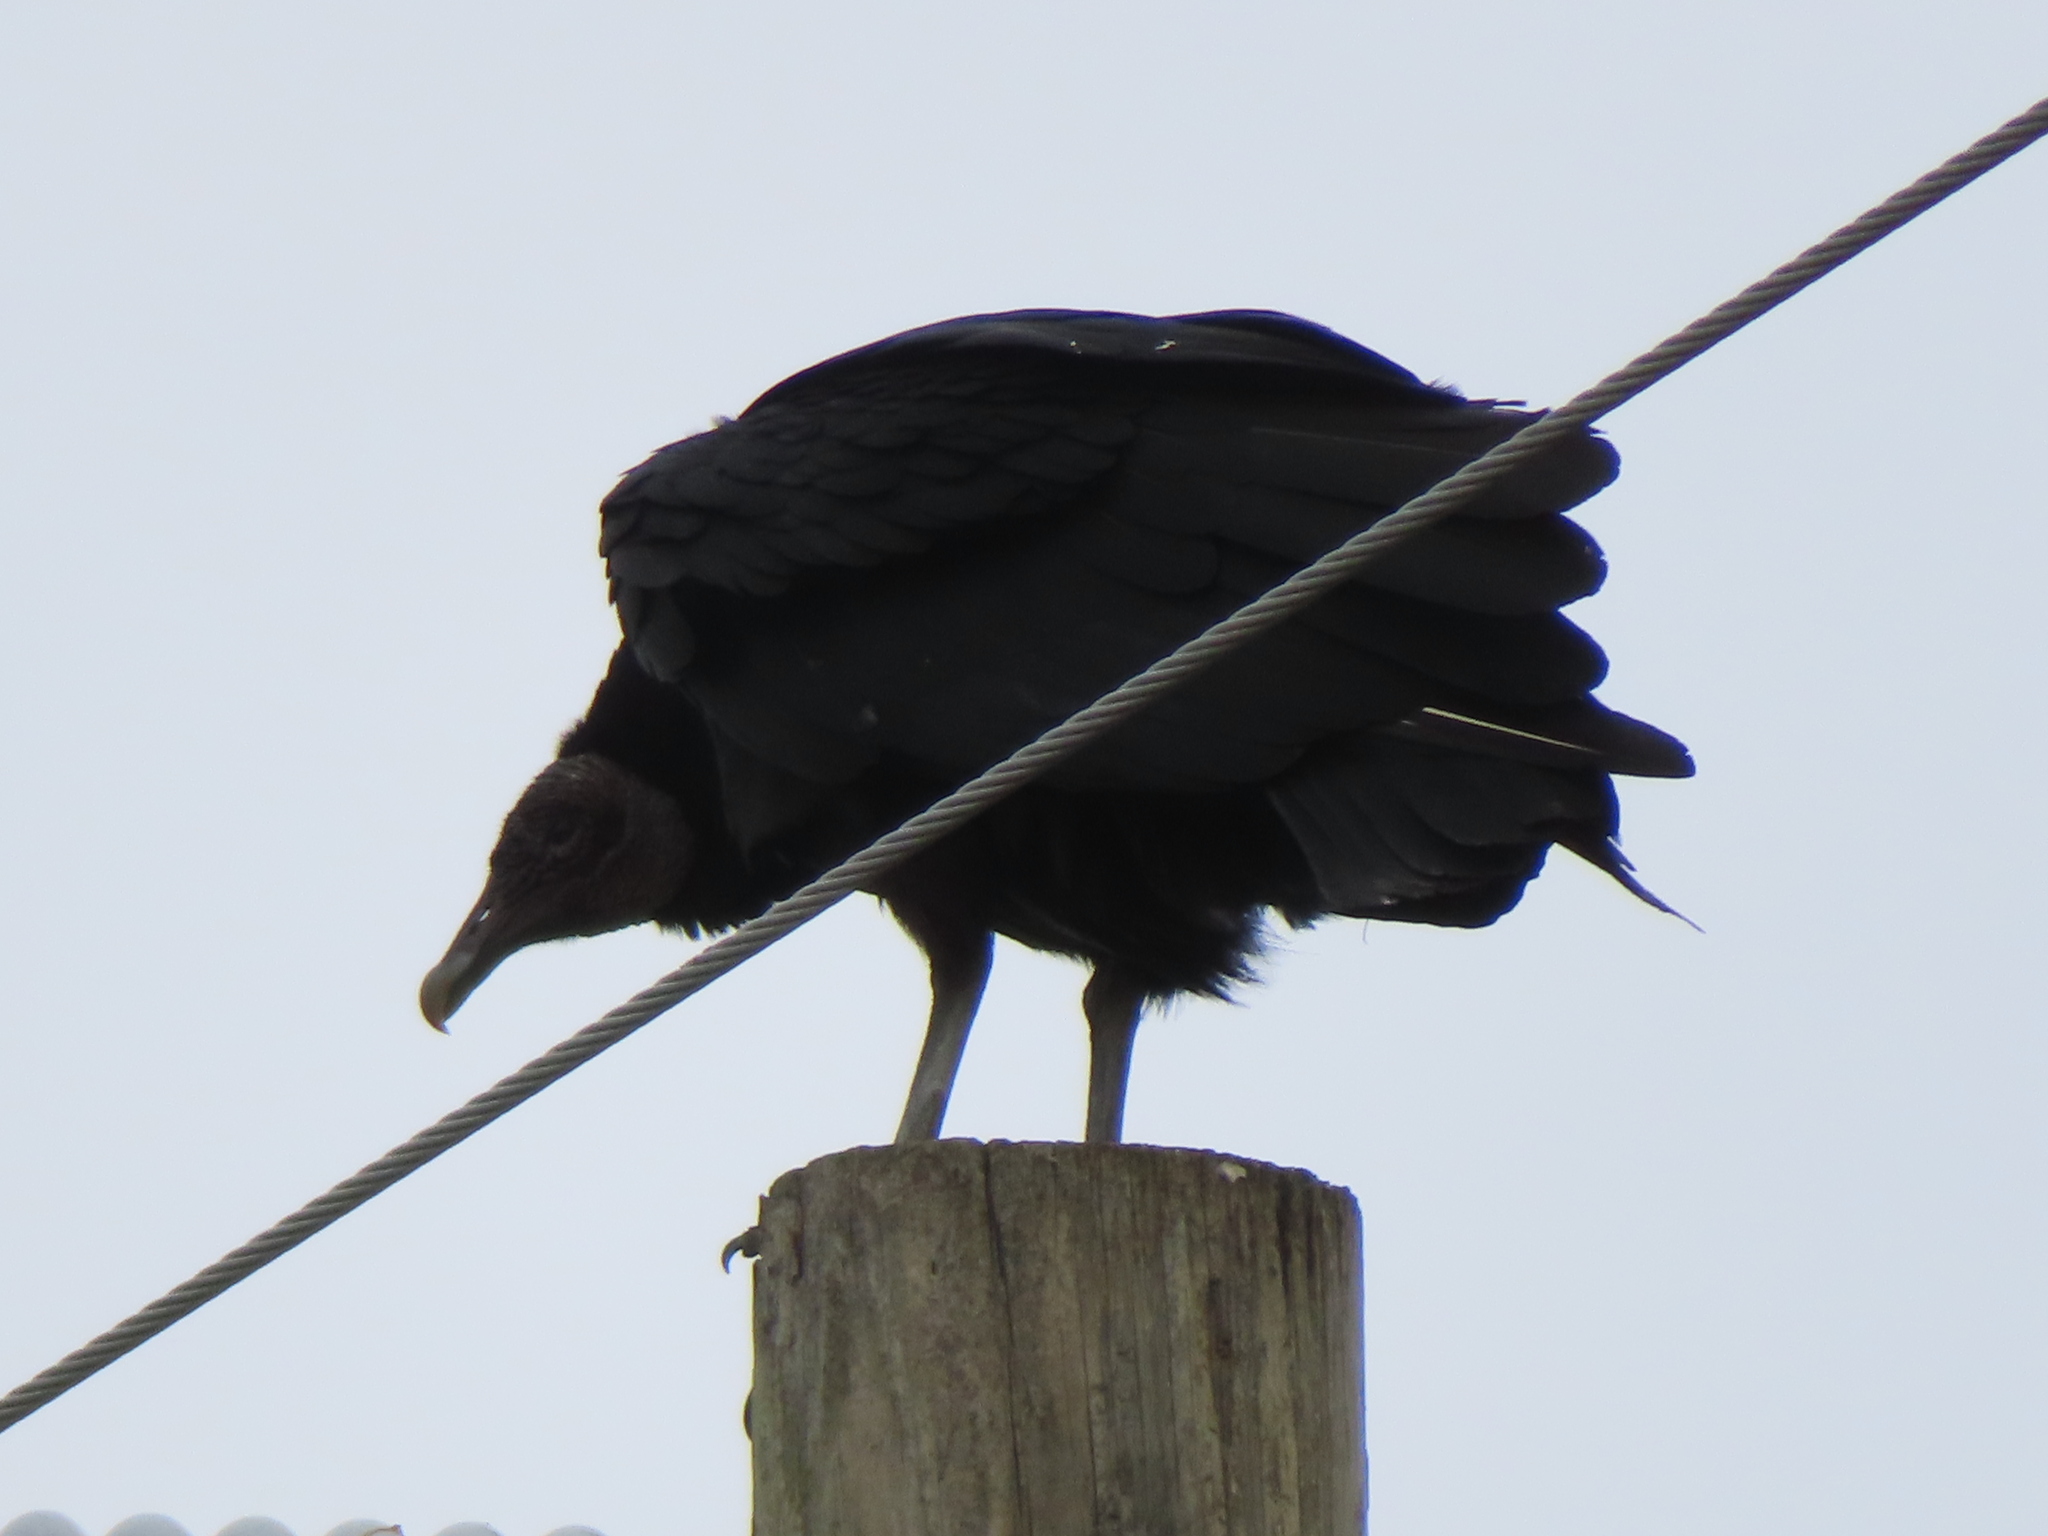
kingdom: Animalia
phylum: Chordata
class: Aves
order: Accipitriformes
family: Cathartidae
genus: Coragyps
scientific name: Coragyps atratus
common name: Black vulture
